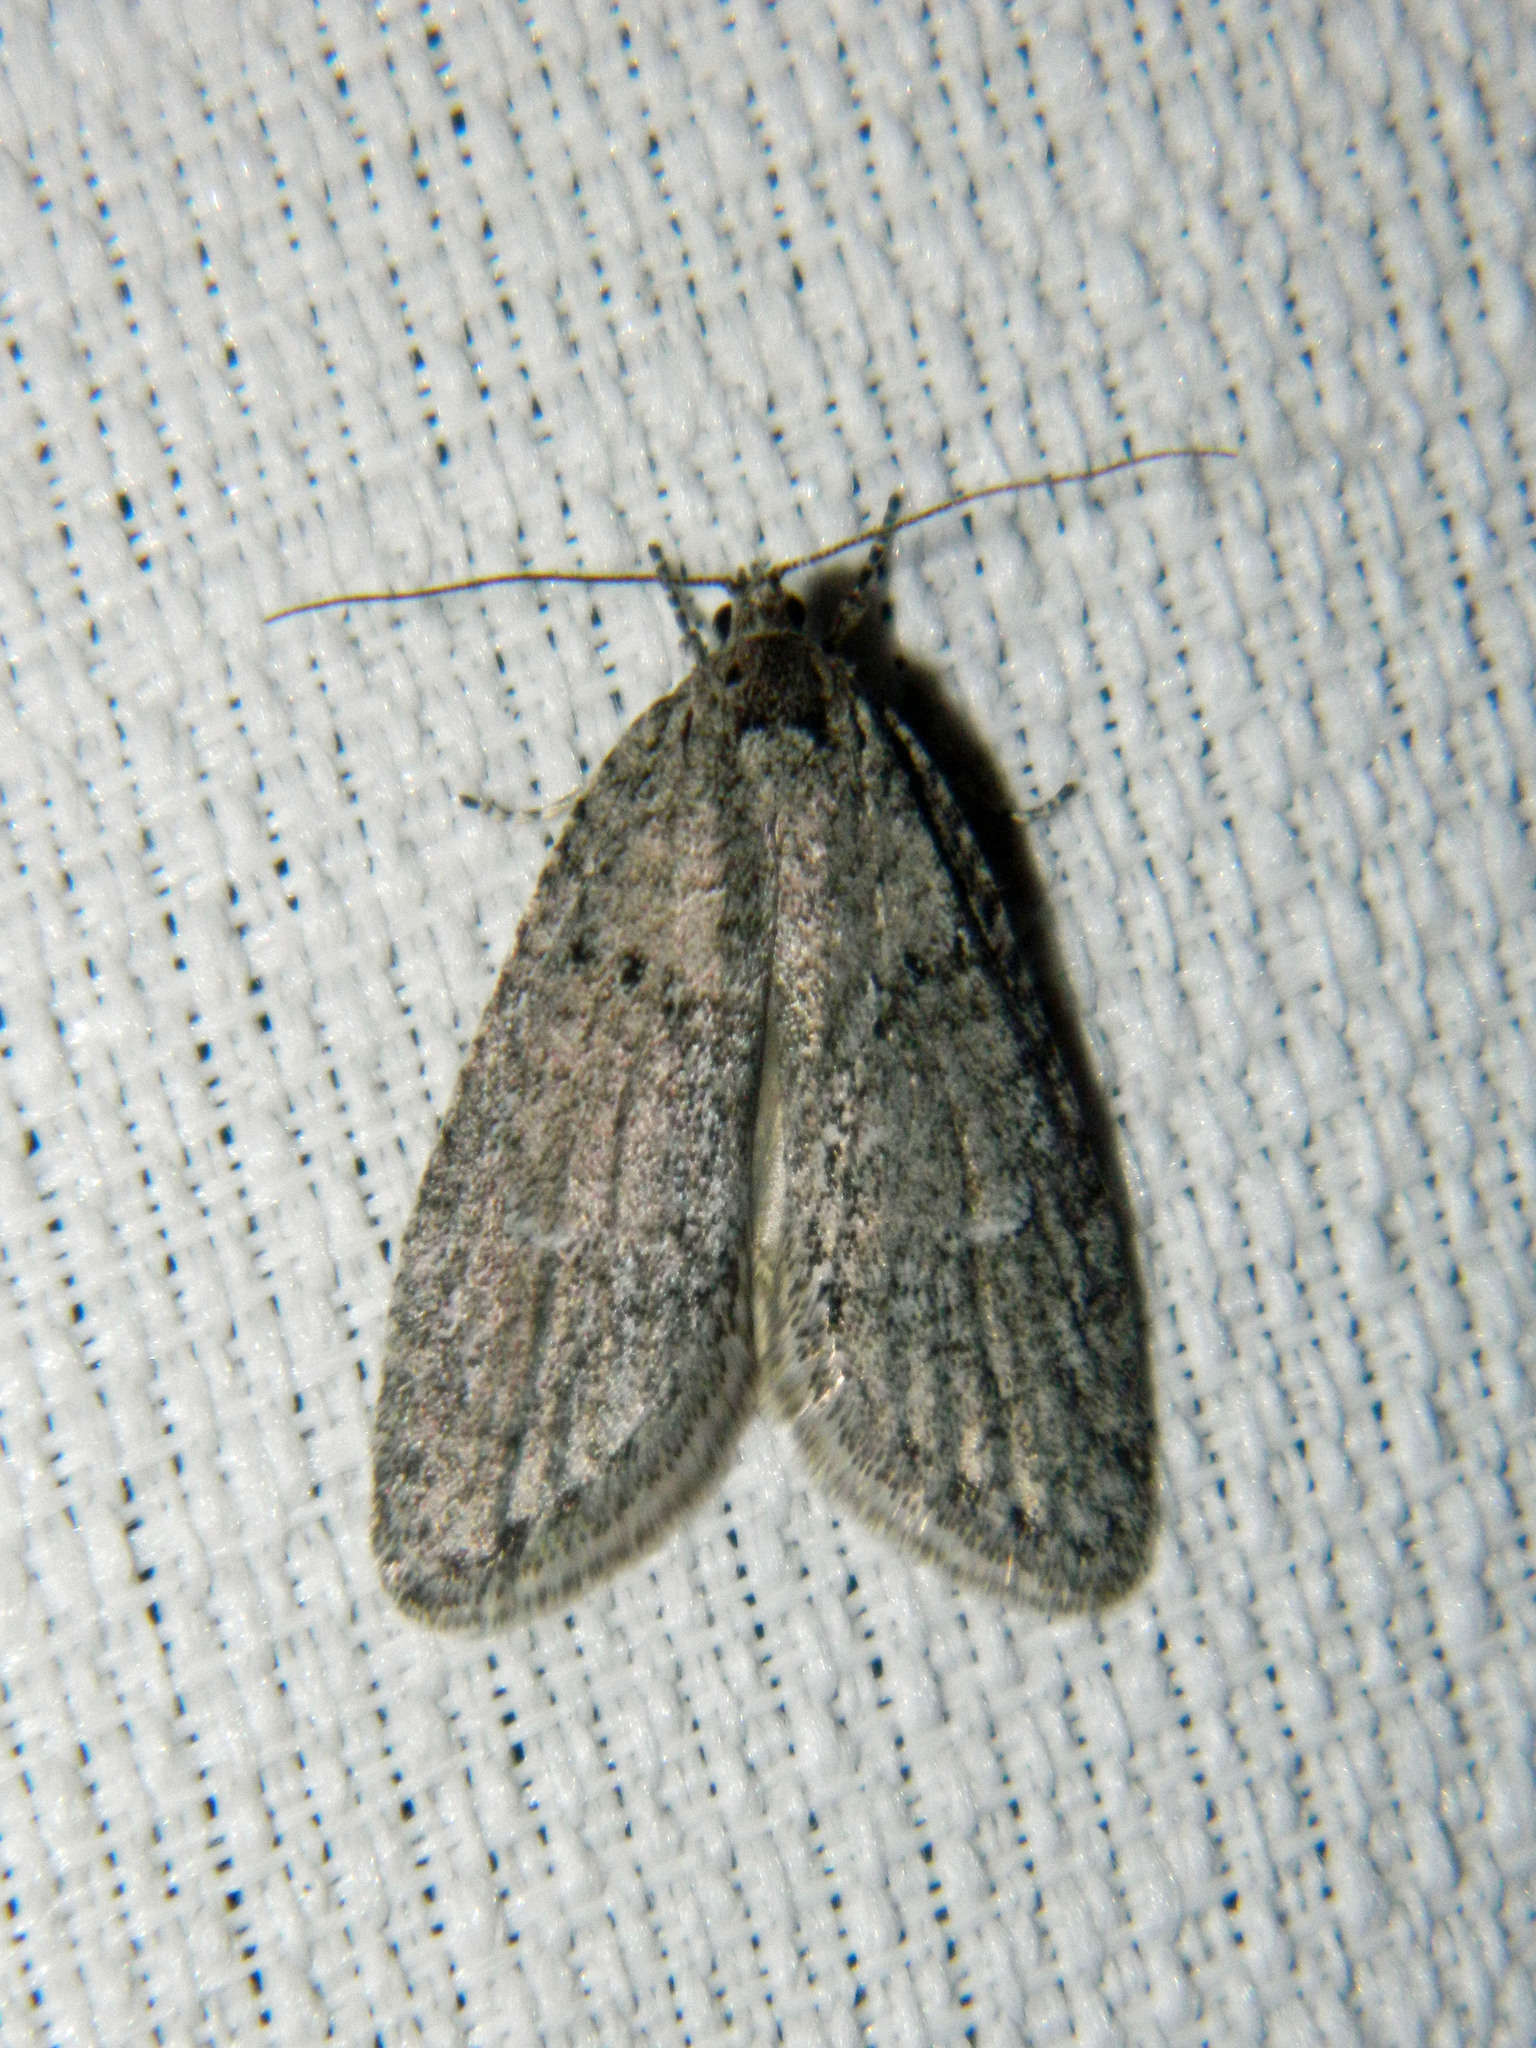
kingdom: Animalia
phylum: Arthropoda
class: Insecta
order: Lepidoptera
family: Depressariidae
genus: Semioscopis
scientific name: Semioscopis inornata
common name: Poplar micromoth
